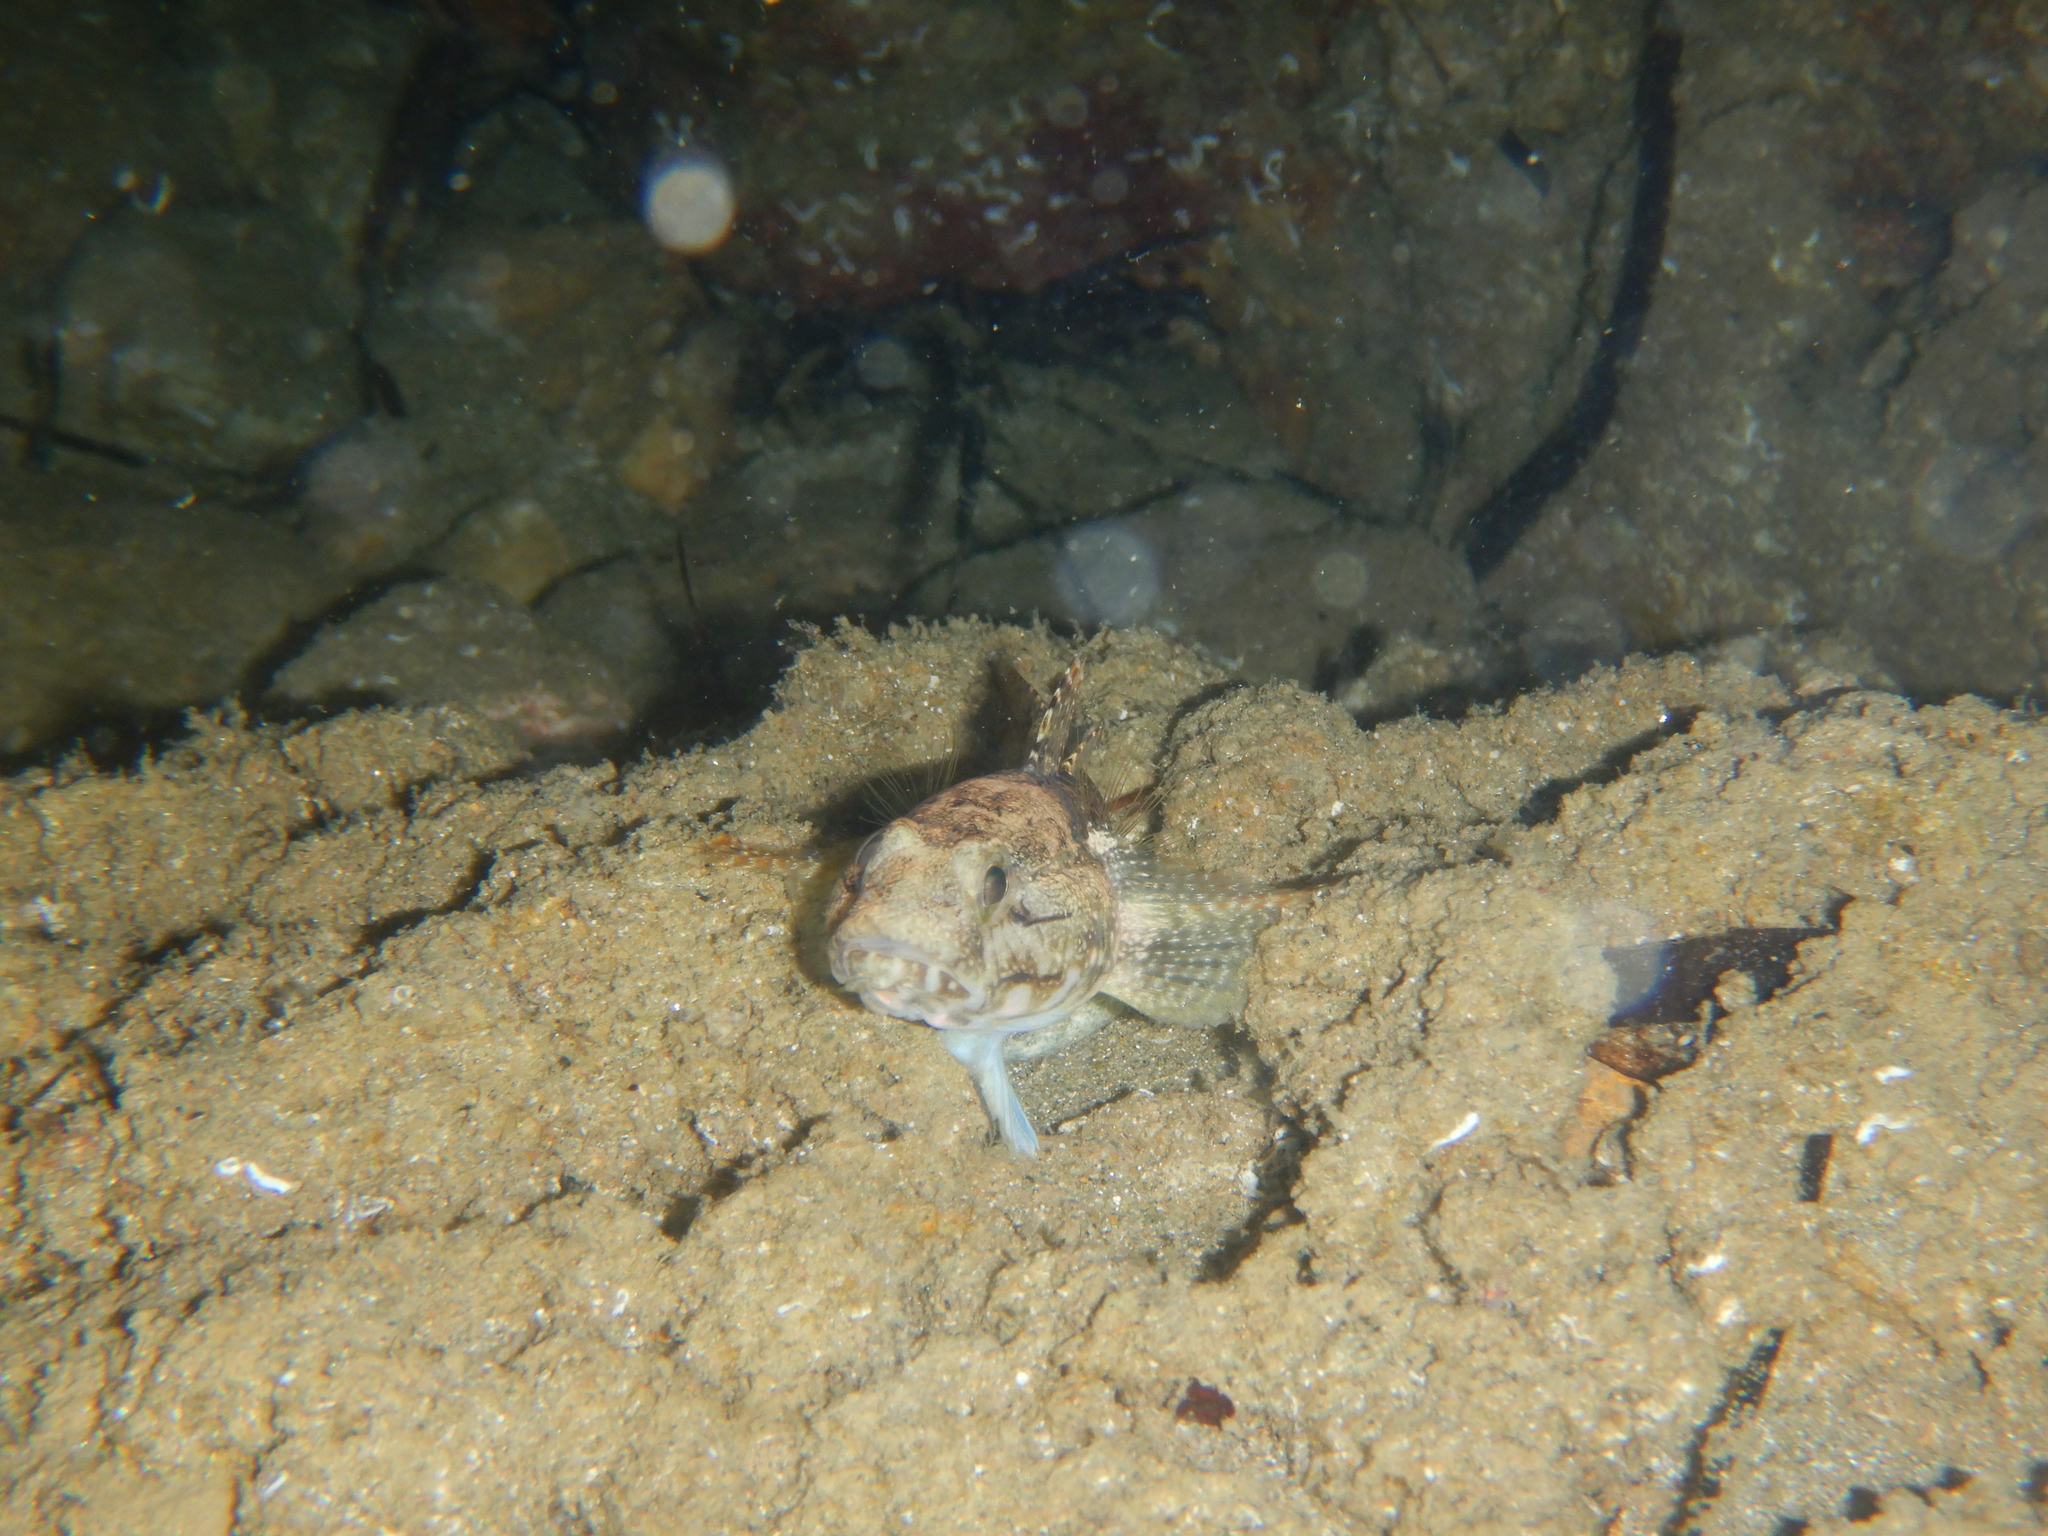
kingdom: Animalia
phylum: Chordata
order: Perciformes
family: Gobiidae
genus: Gobius
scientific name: Gobius paganellus
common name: Rock goby
